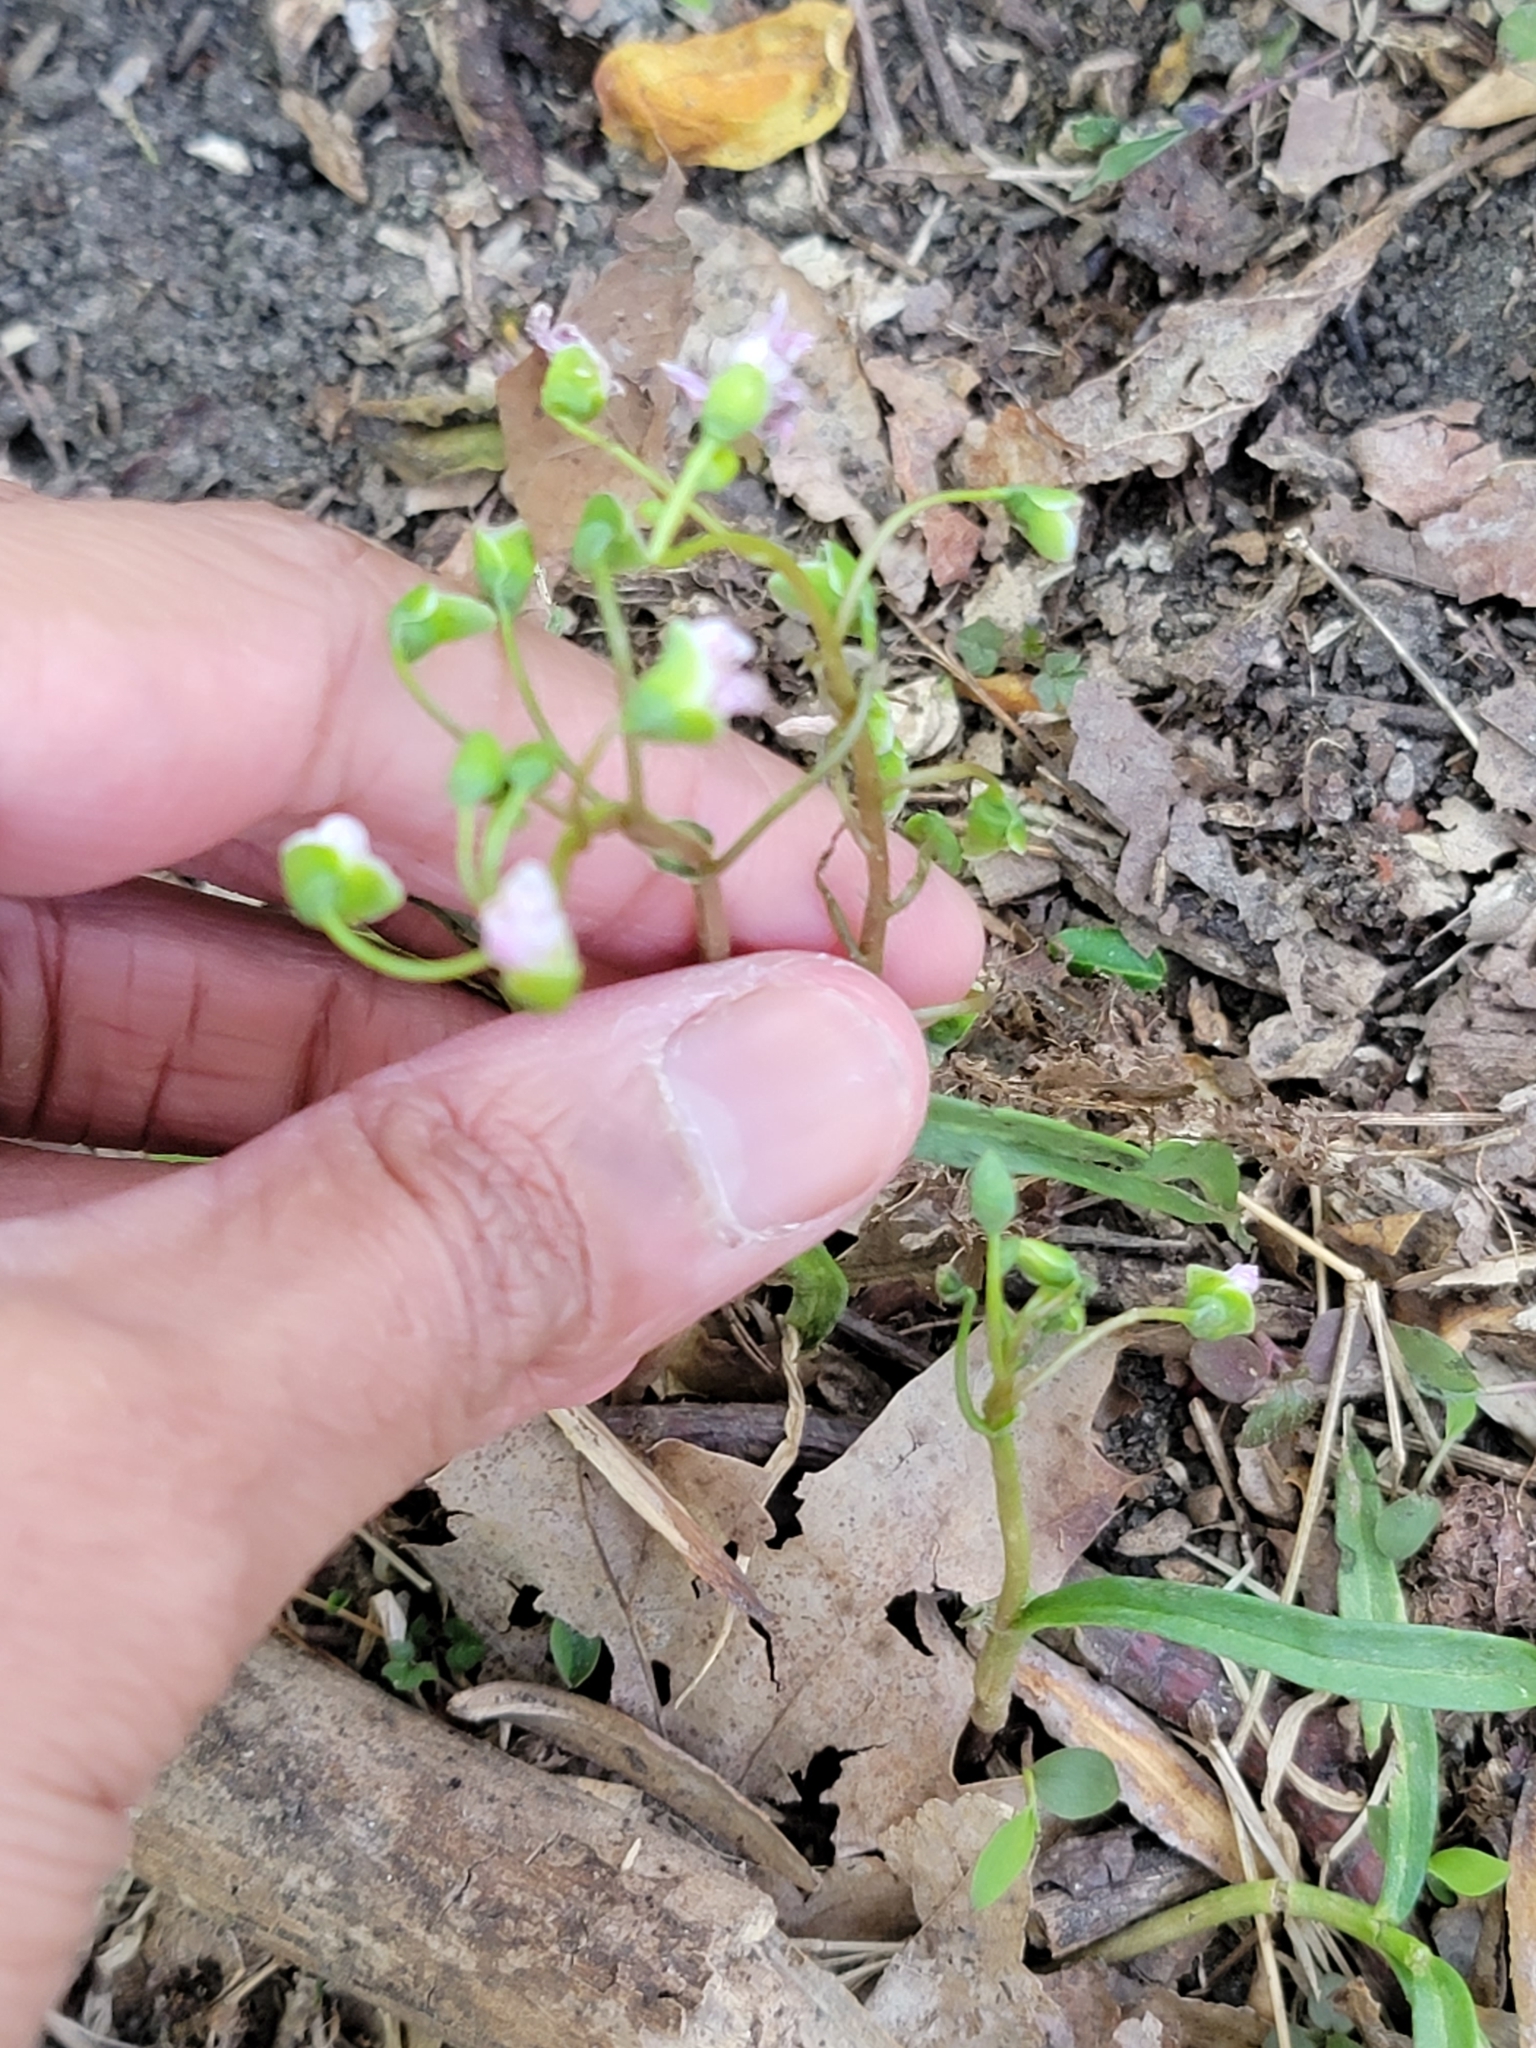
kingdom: Plantae
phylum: Tracheophyta
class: Magnoliopsida
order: Caryophyllales
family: Montiaceae
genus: Claytonia
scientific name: Claytonia virginica
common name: Virginia springbeauty
